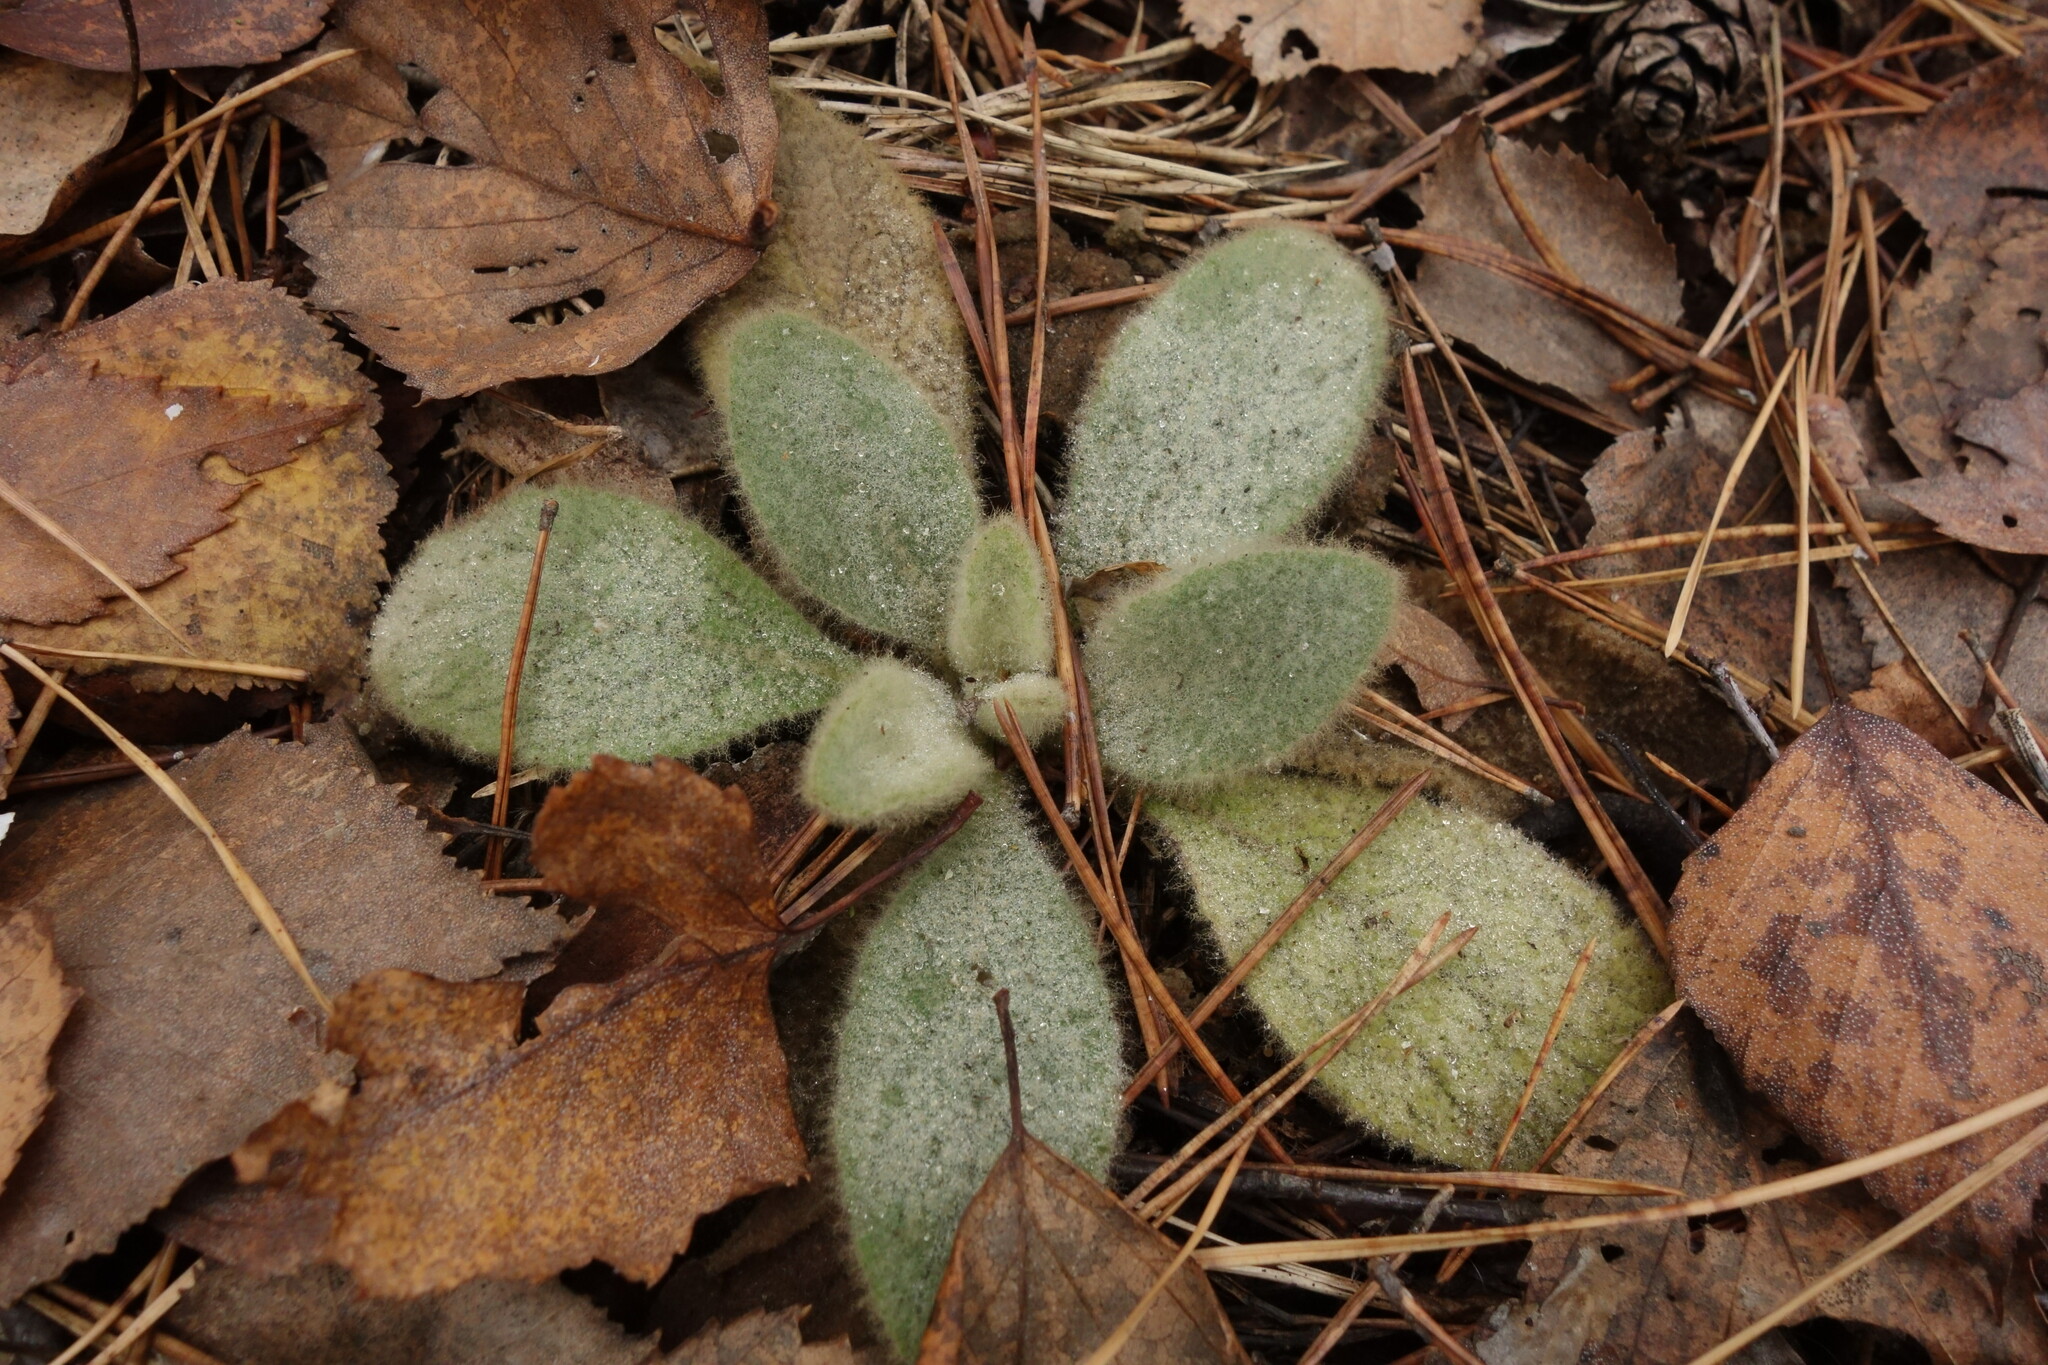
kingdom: Plantae
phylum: Tracheophyta
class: Magnoliopsida
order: Lamiales
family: Scrophulariaceae
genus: Verbascum
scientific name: Verbascum thapsus
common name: Common mullein
